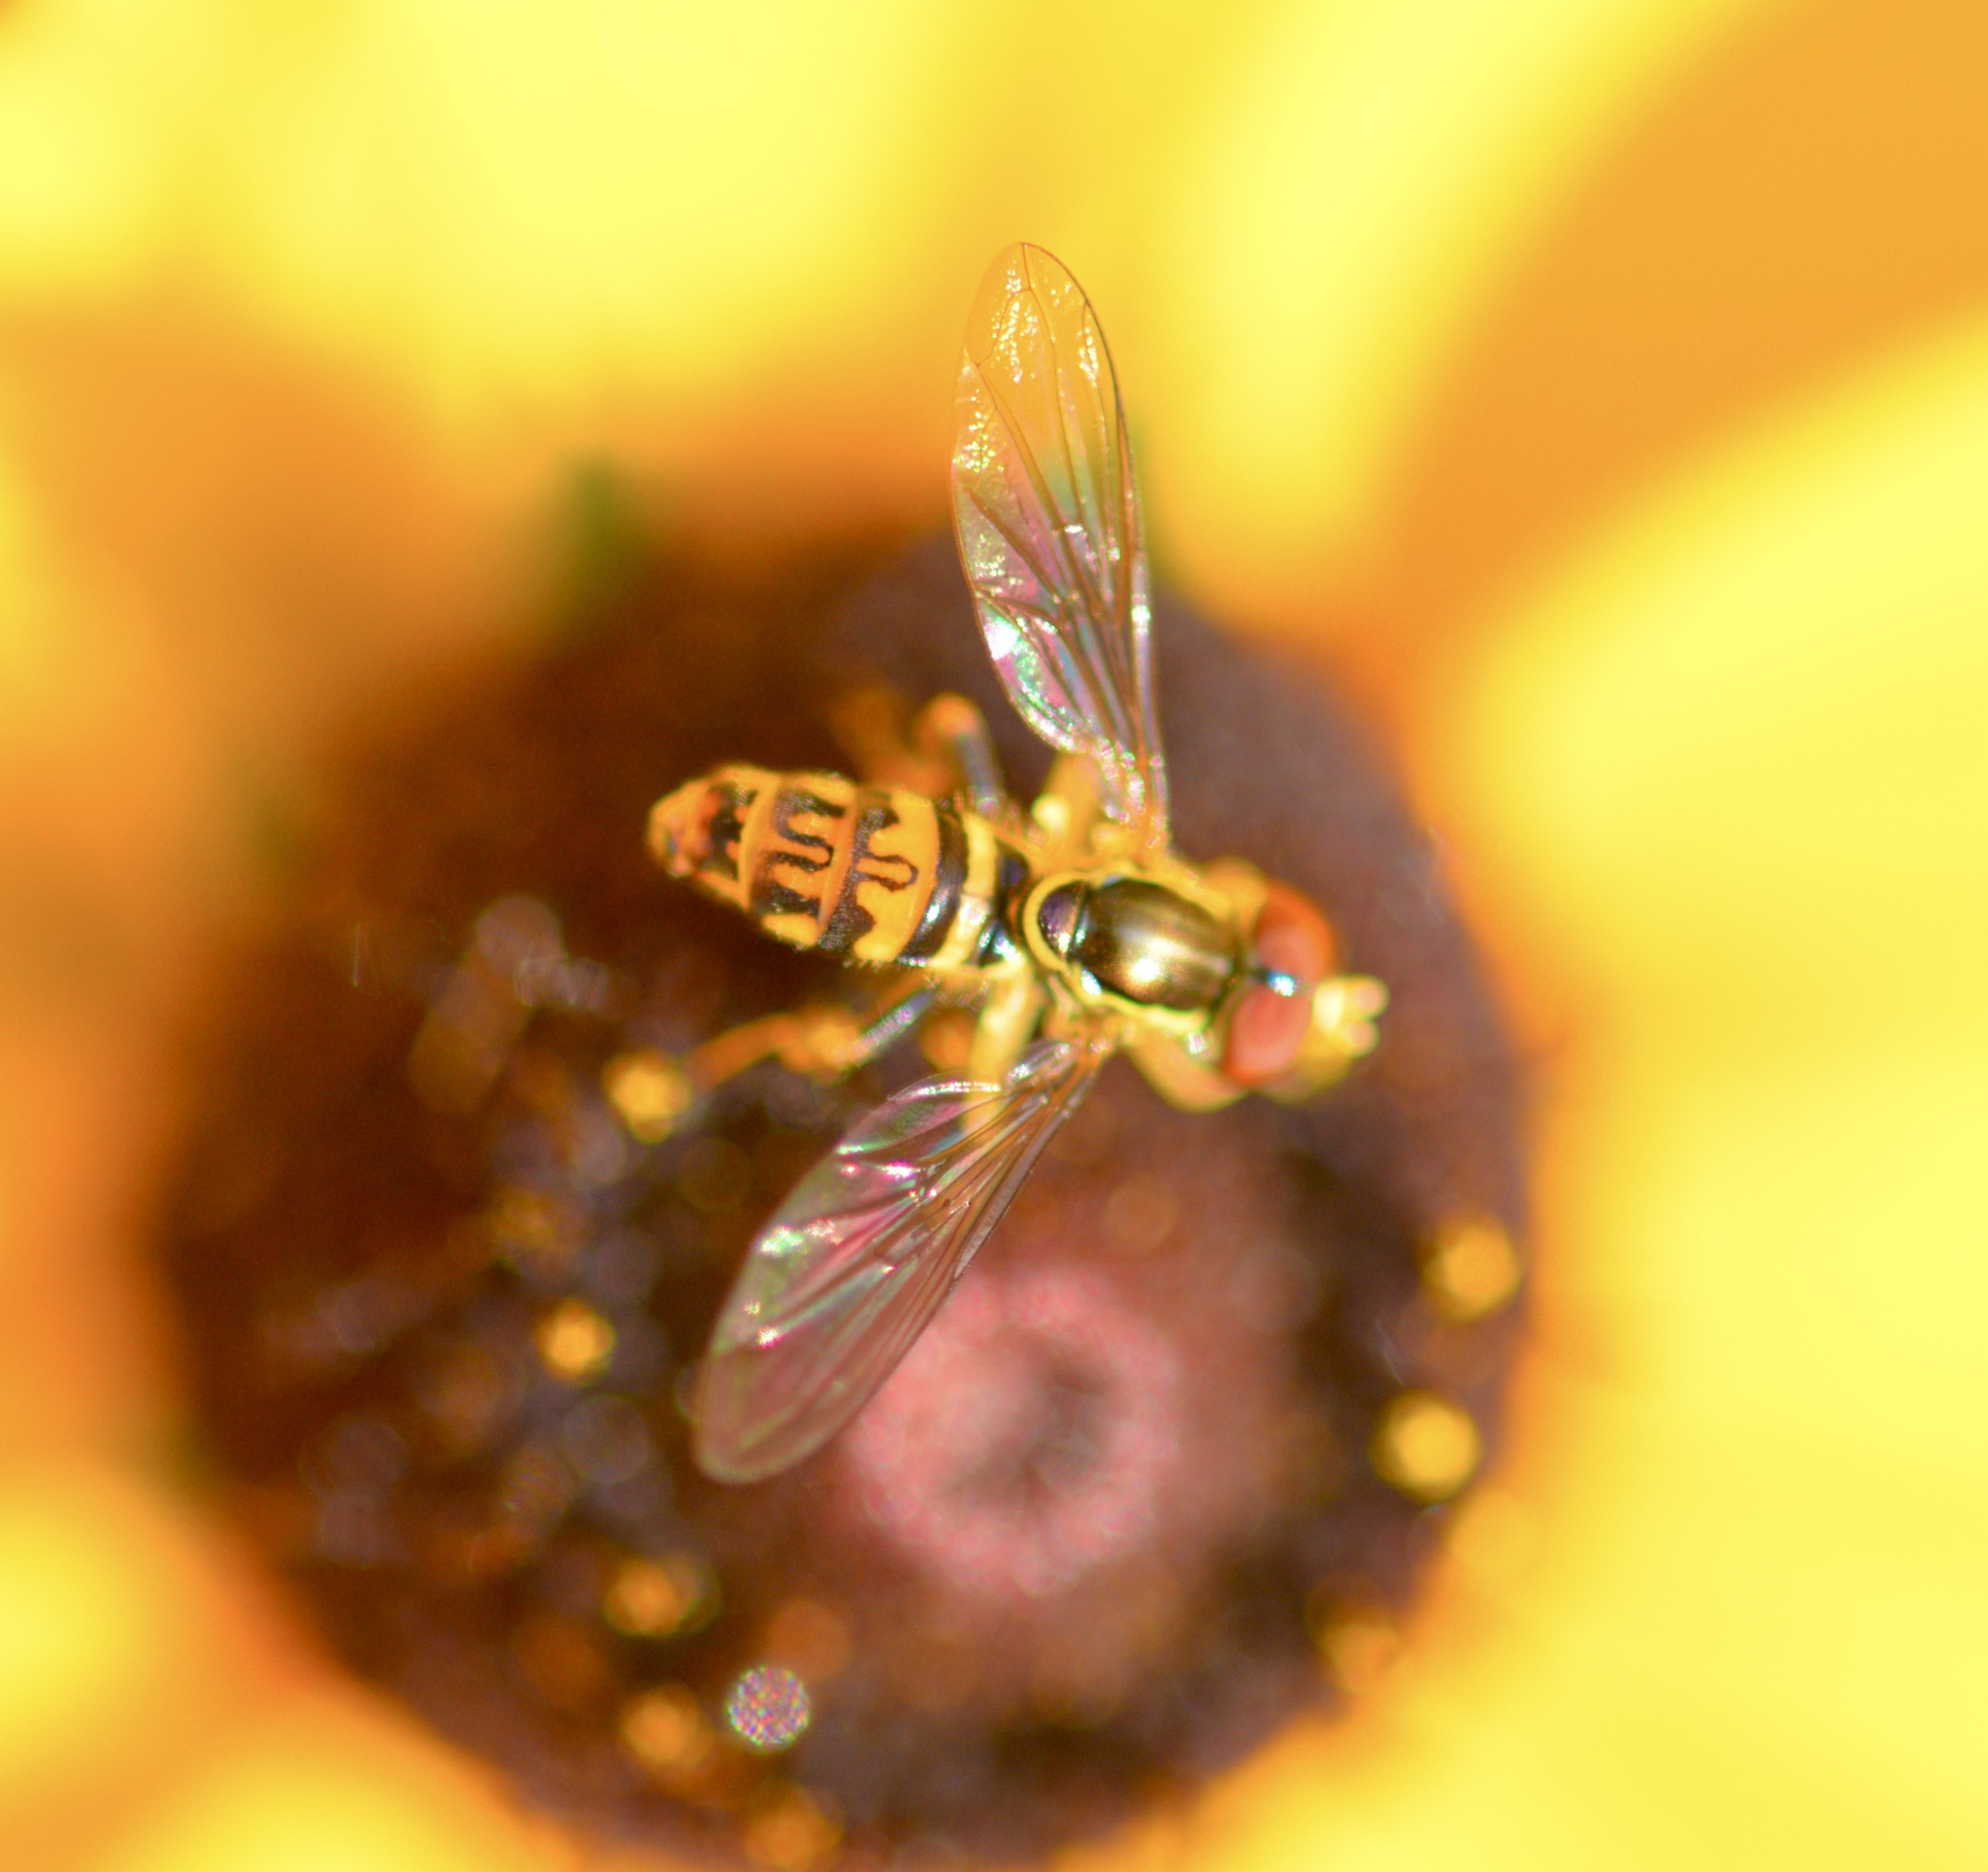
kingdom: Animalia
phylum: Arthropoda
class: Insecta
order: Diptera
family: Syrphidae
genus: Toxomerus
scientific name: Toxomerus geminatus
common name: Eastern calligrapher
